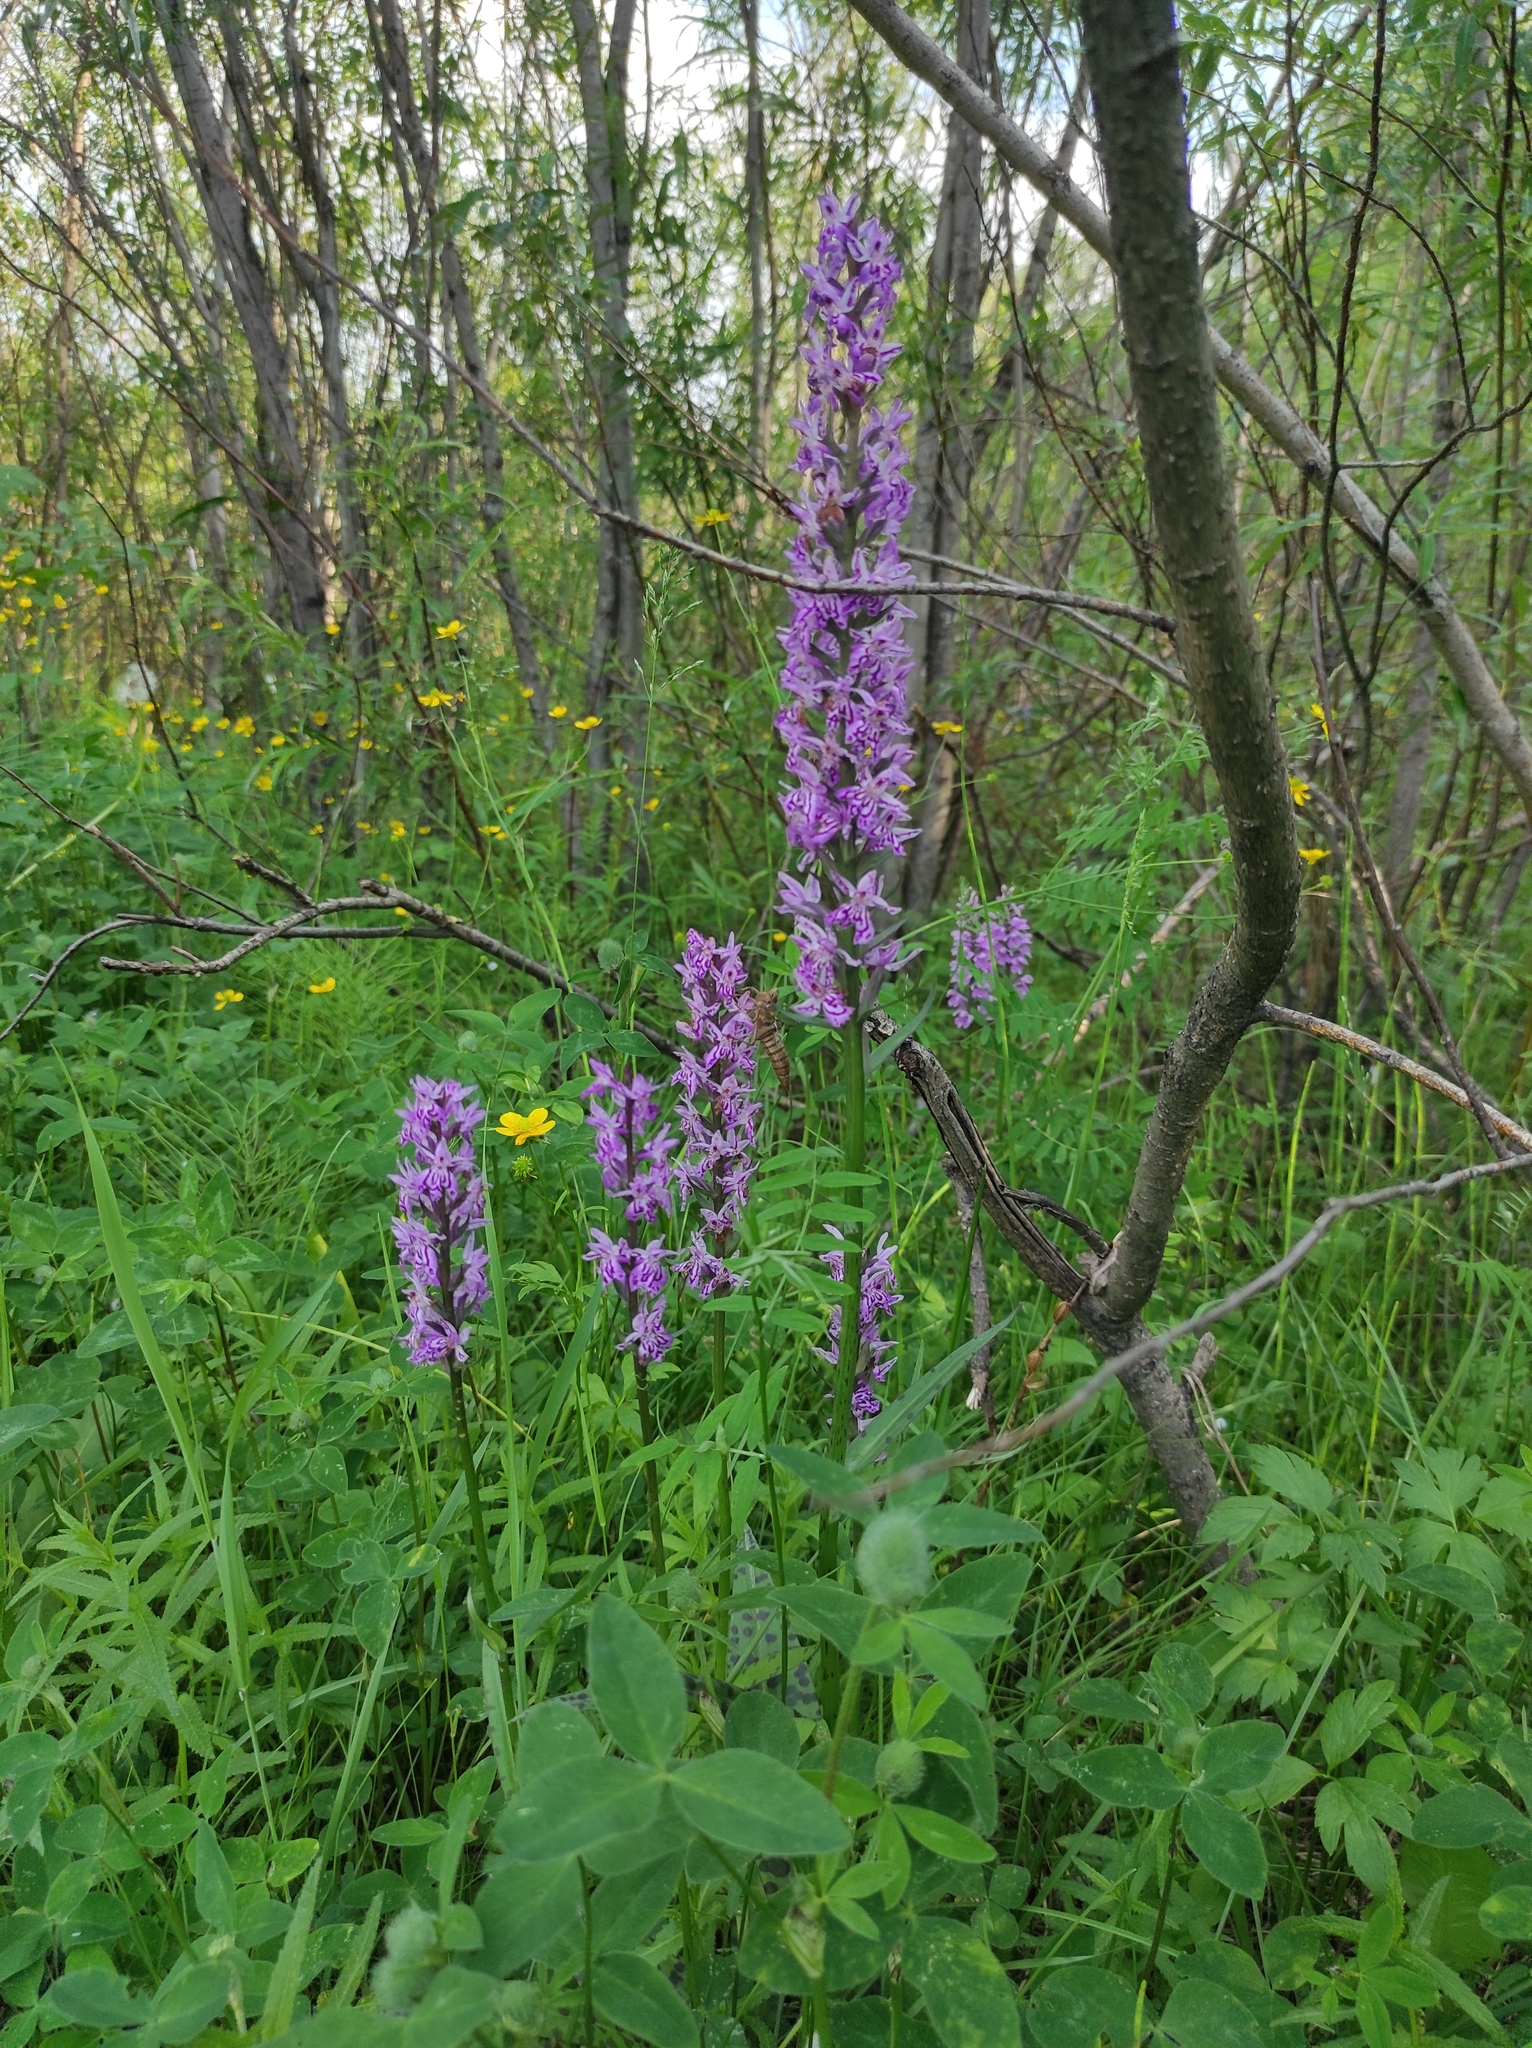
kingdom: Plantae
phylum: Tracheophyta
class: Magnoliopsida
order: Ranunculales
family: Ranunculaceae
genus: Ranunculus
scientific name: Ranunculus repens
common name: Creeping buttercup
